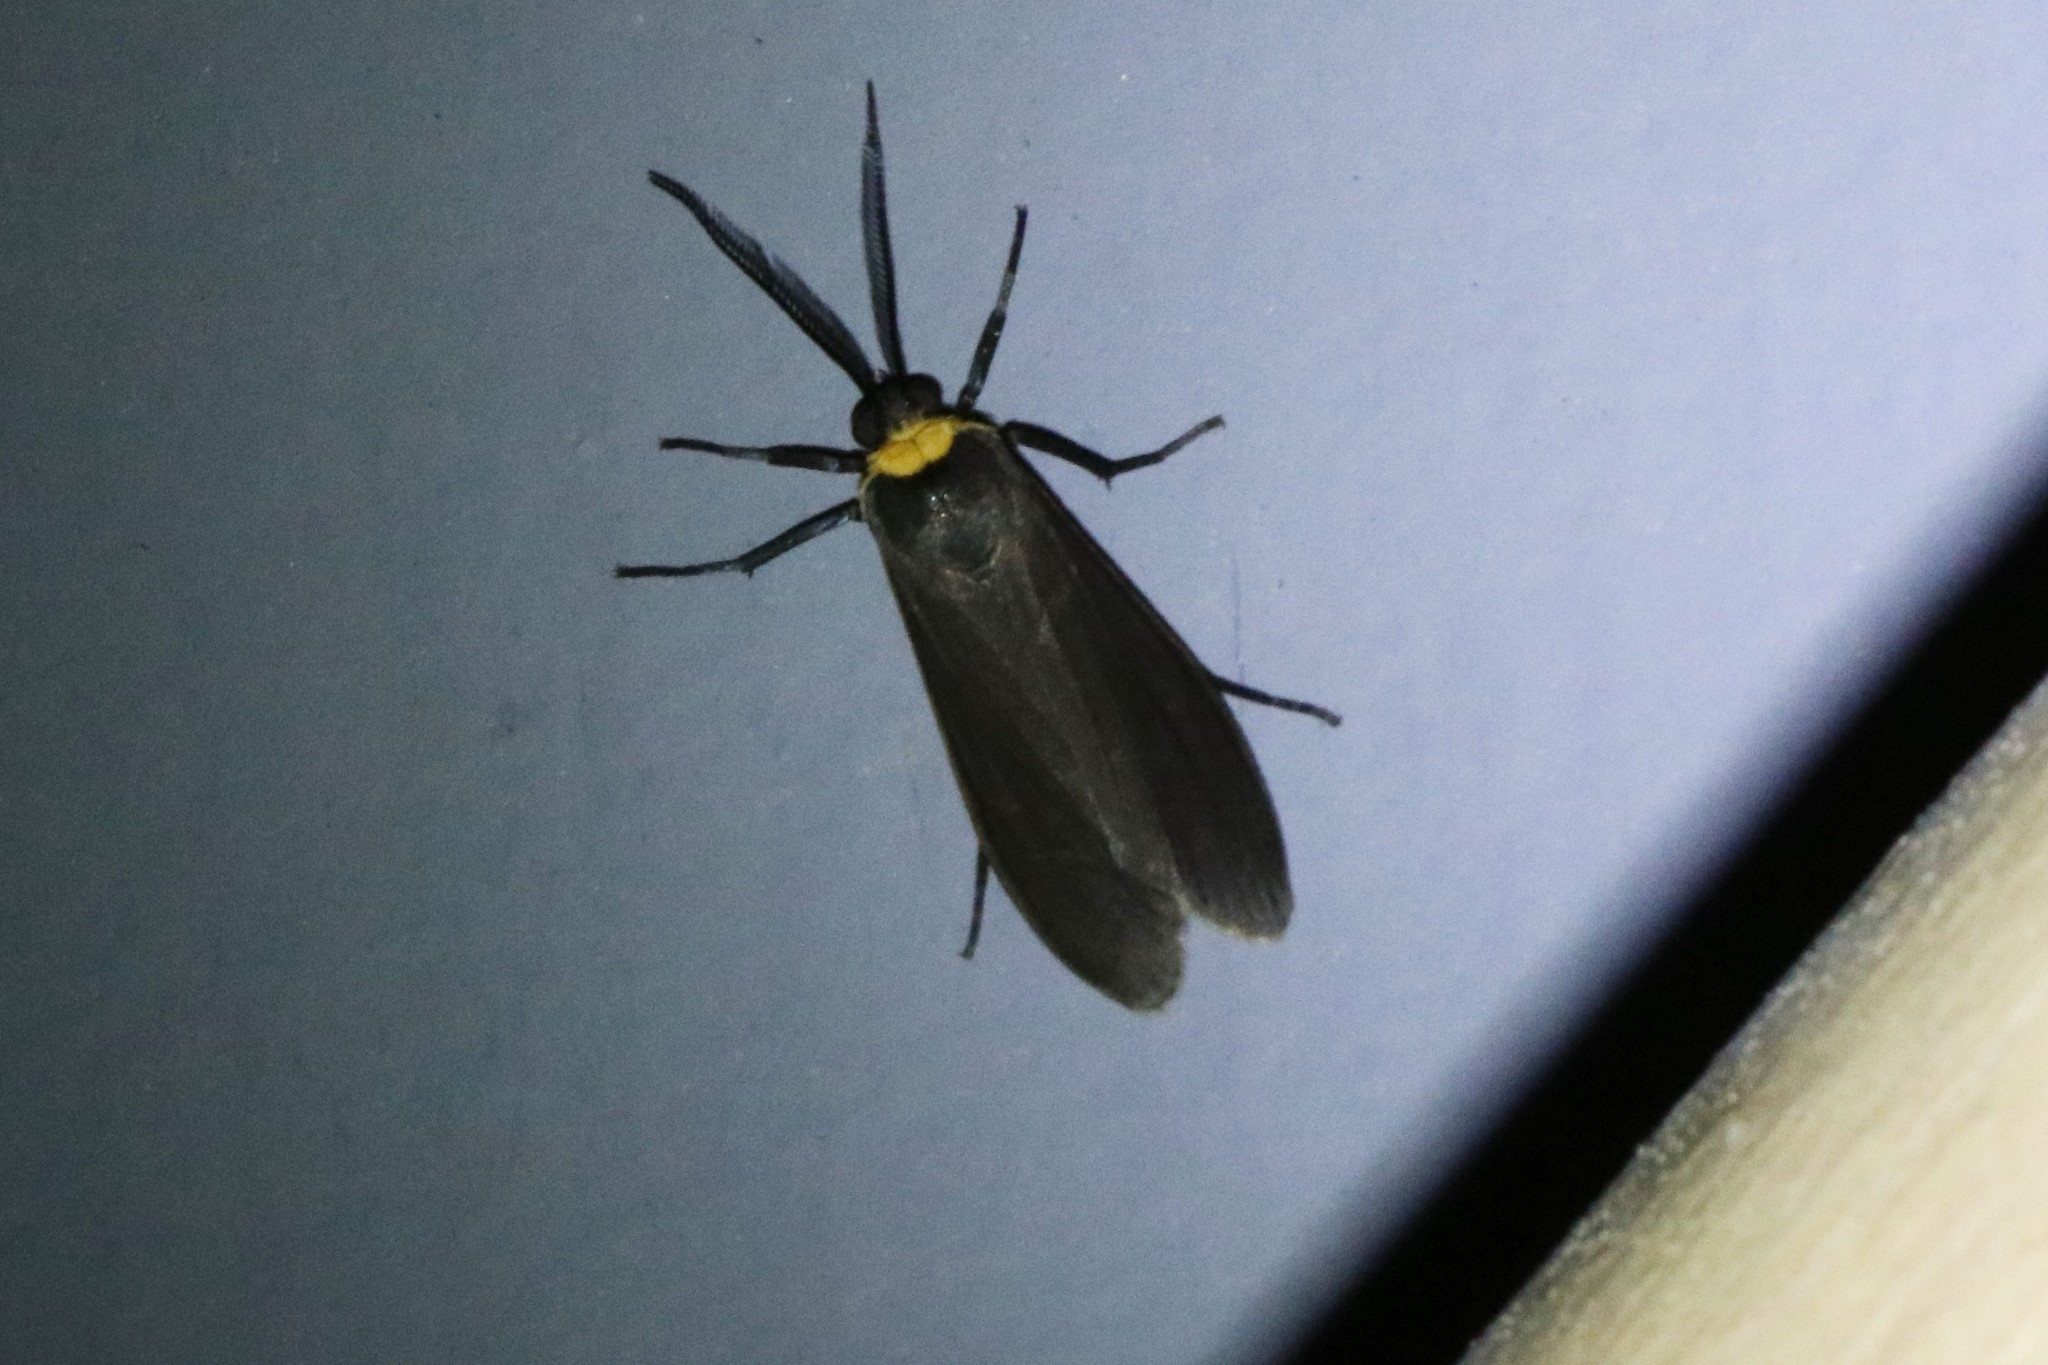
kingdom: Animalia
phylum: Arthropoda
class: Insecta
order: Lepidoptera
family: Erebidae
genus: Cisseps
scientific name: Cisseps fulvicollis
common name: Yellow-collared scape moth
